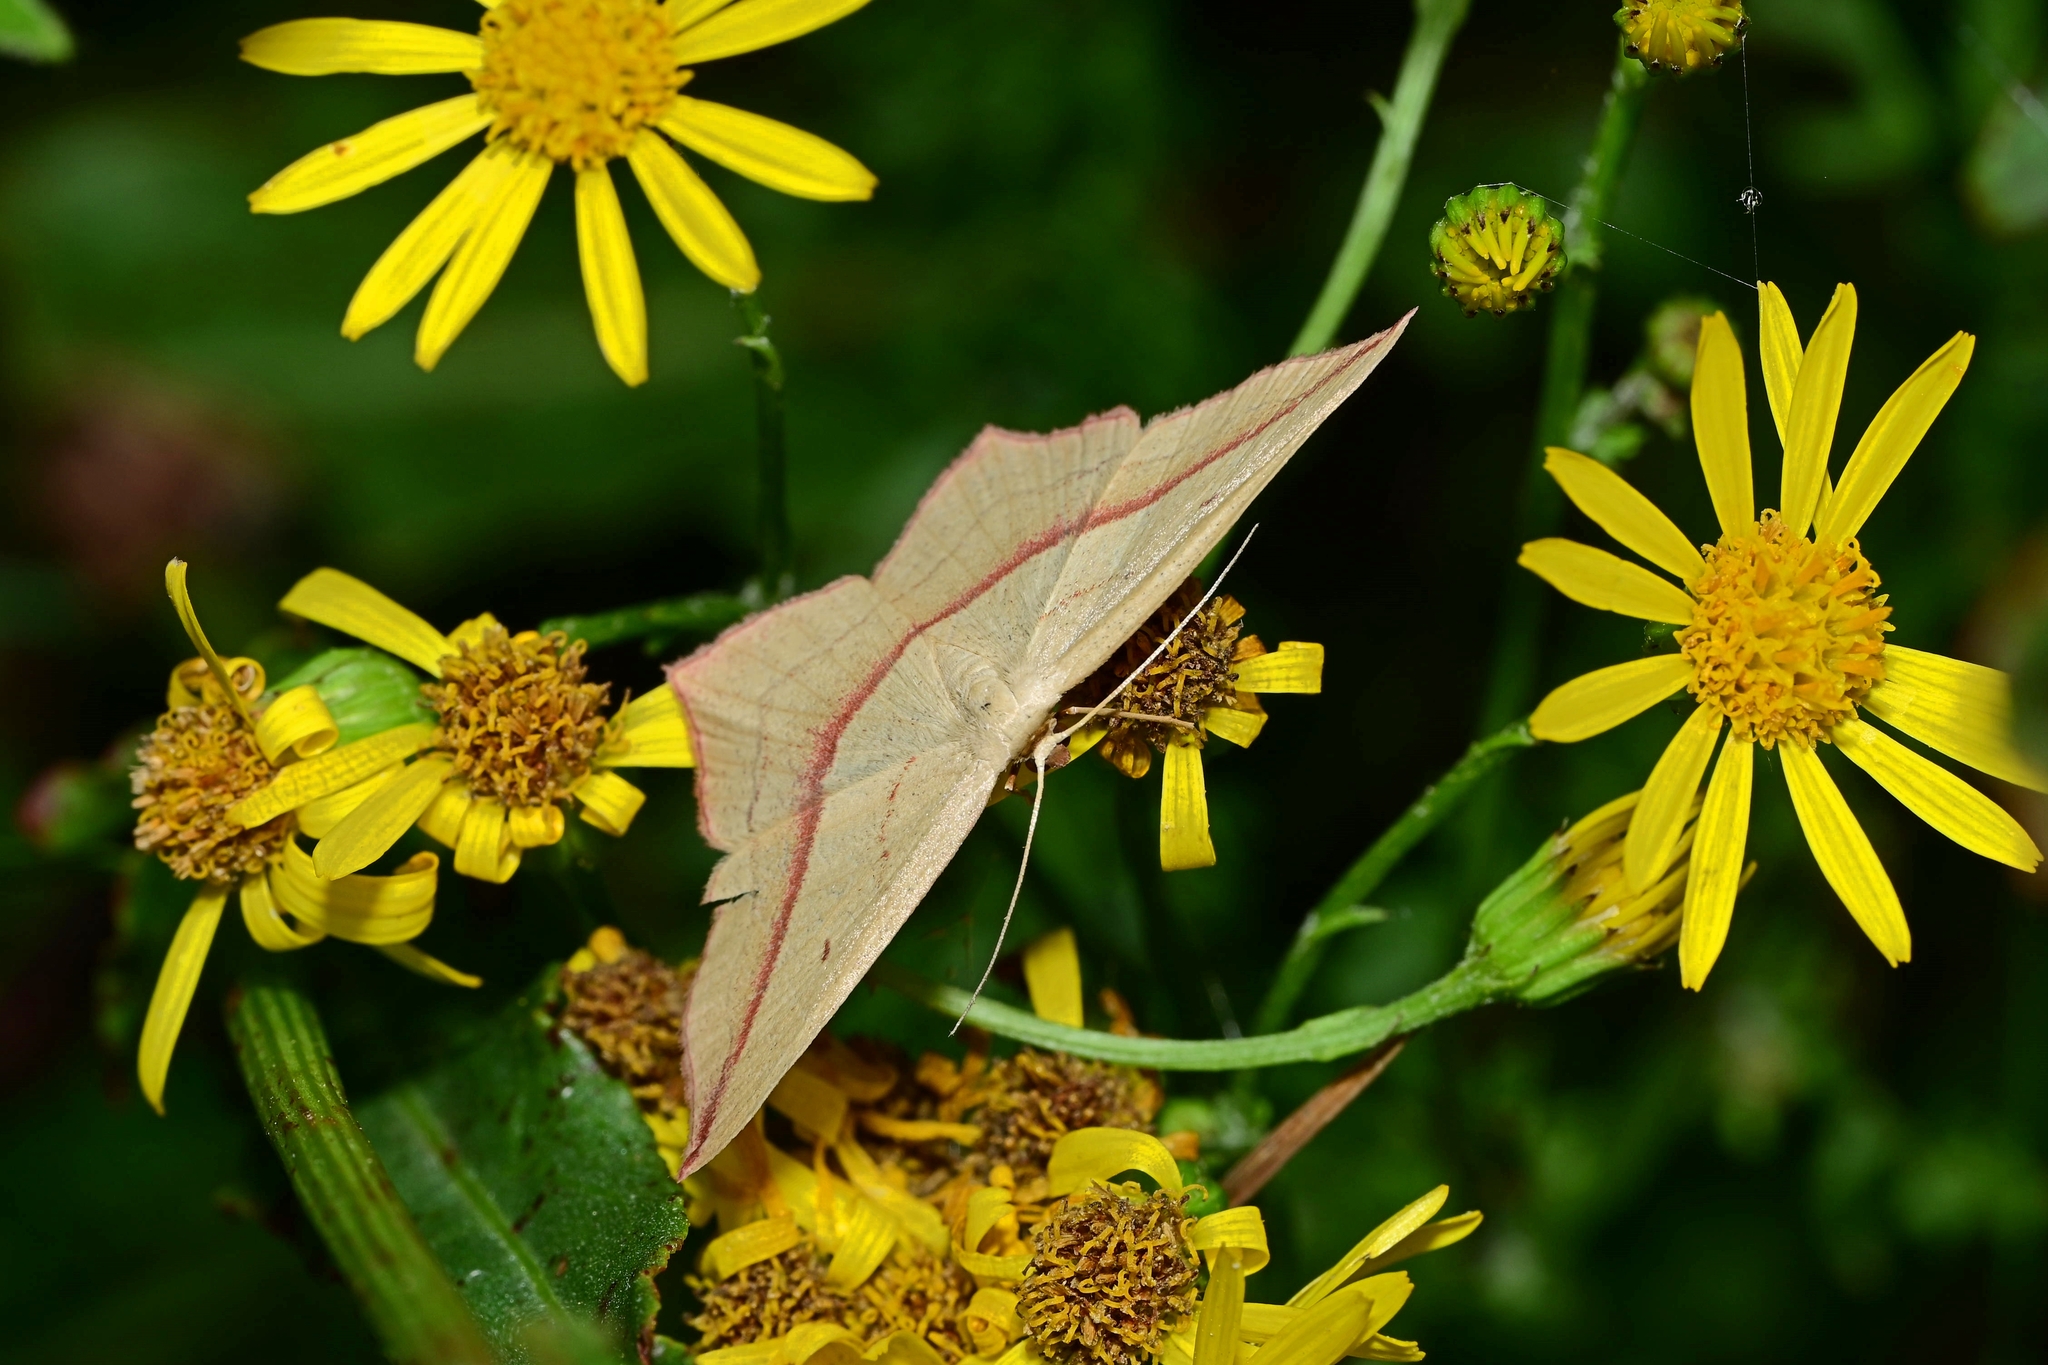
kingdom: Animalia
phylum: Arthropoda
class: Insecta
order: Lepidoptera
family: Geometridae
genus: Timandra
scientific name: Timandra comae
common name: Blood-vein
